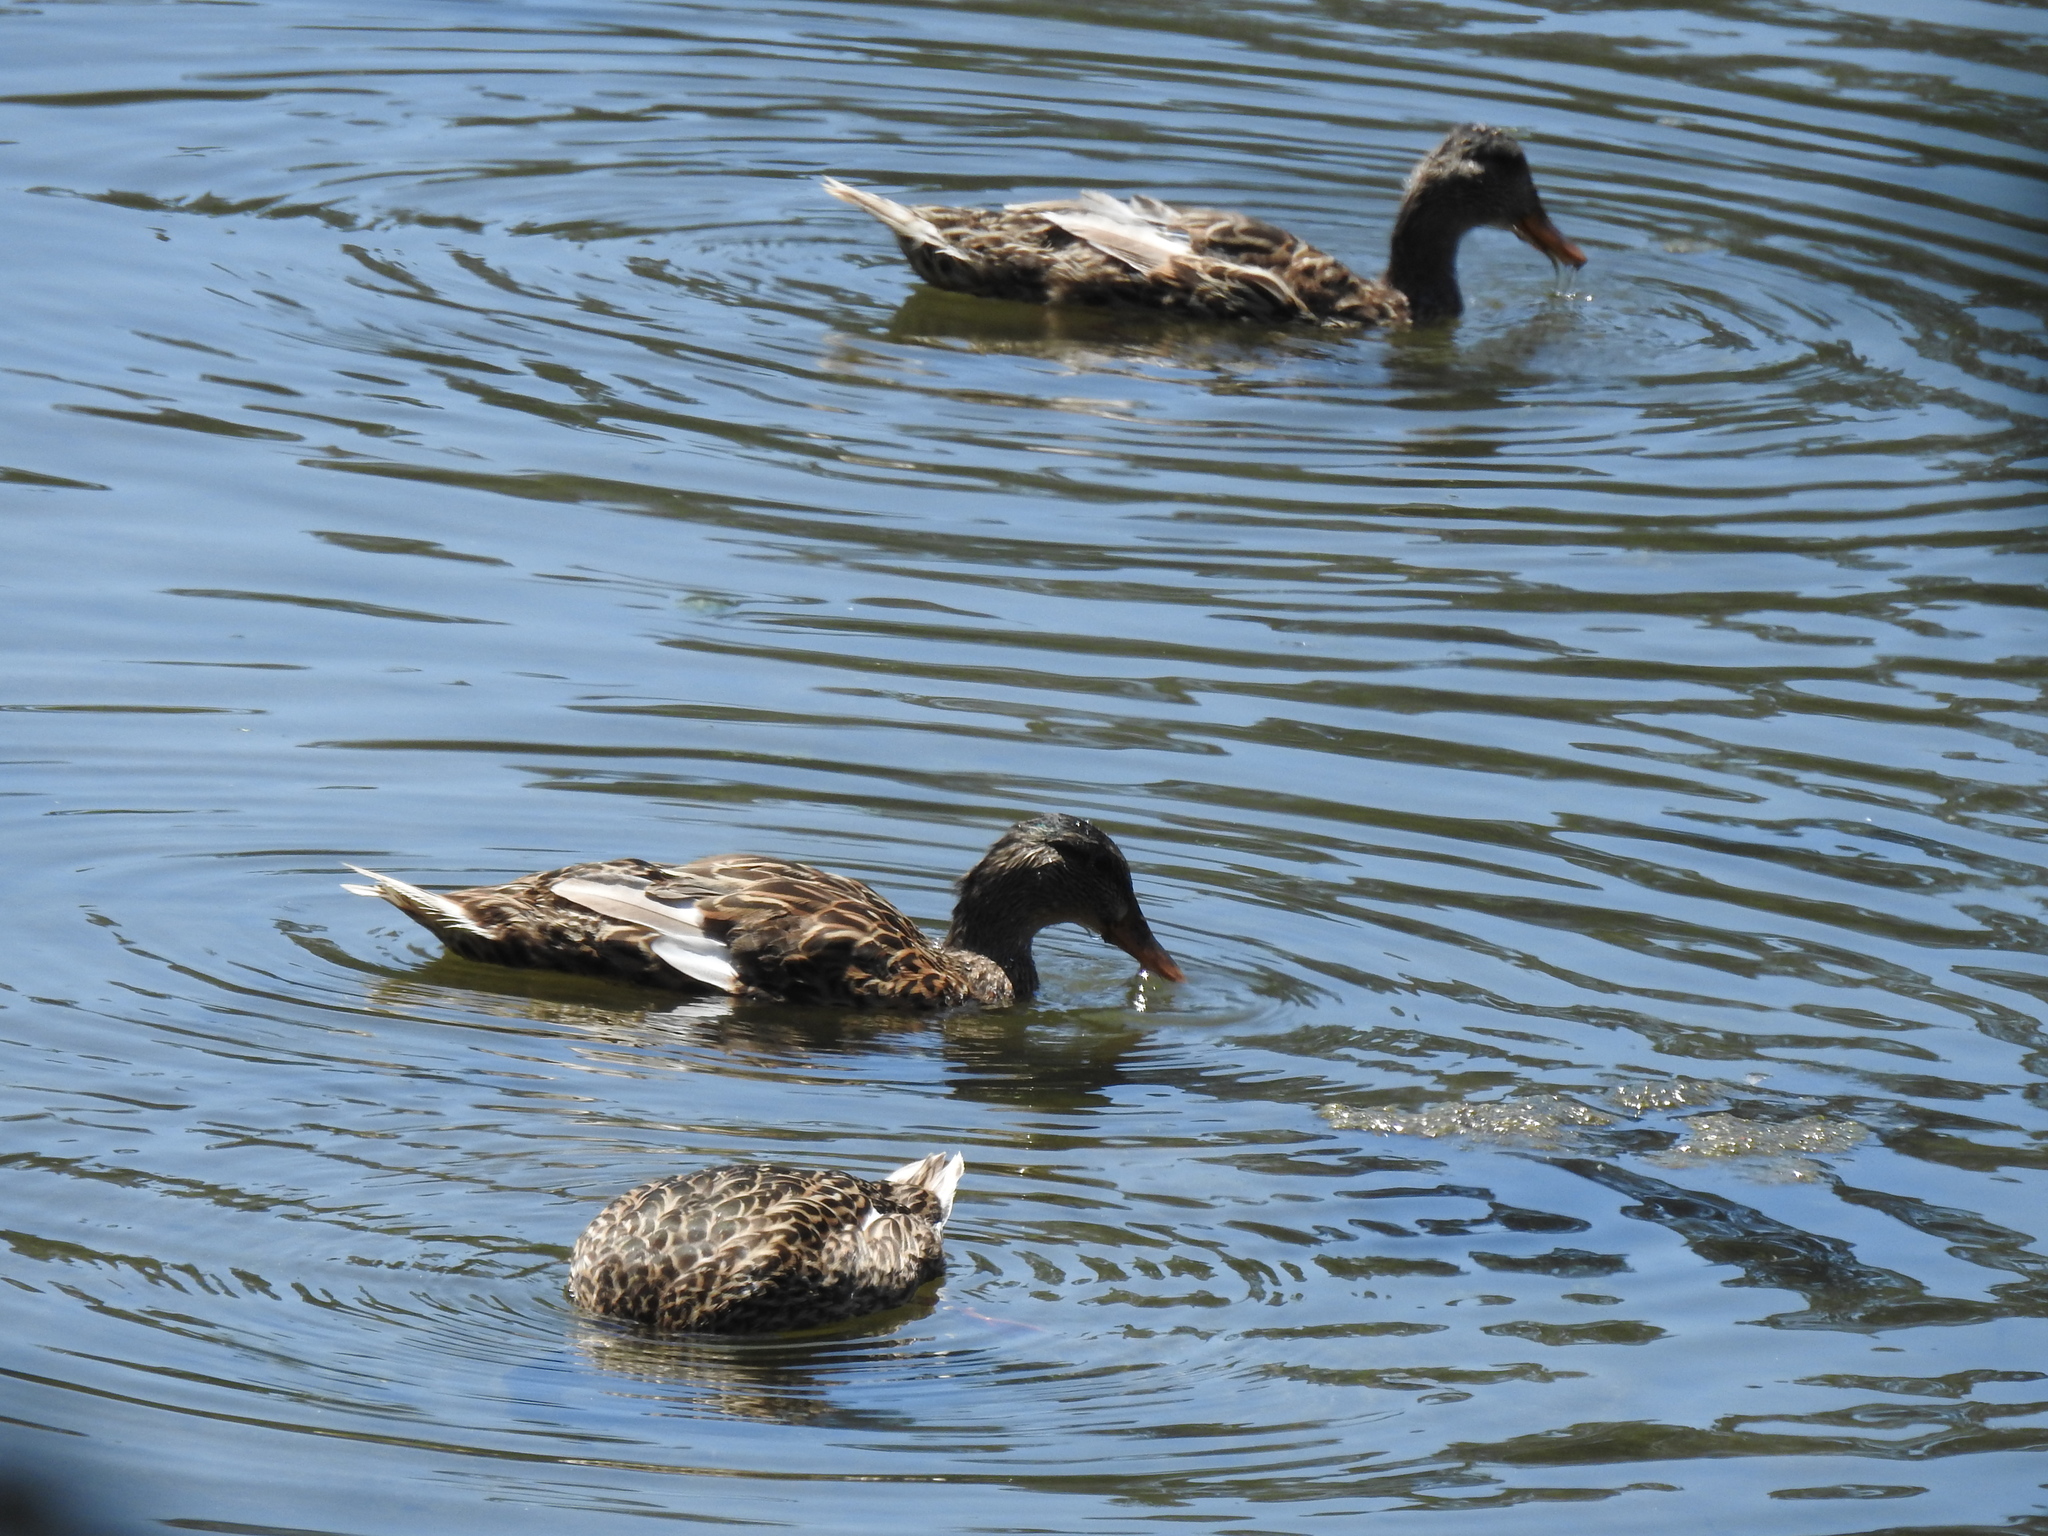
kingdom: Animalia
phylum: Chordata
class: Aves
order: Anseriformes
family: Anatidae
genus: Anas
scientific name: Anas platyrhynchos
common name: Mallard
